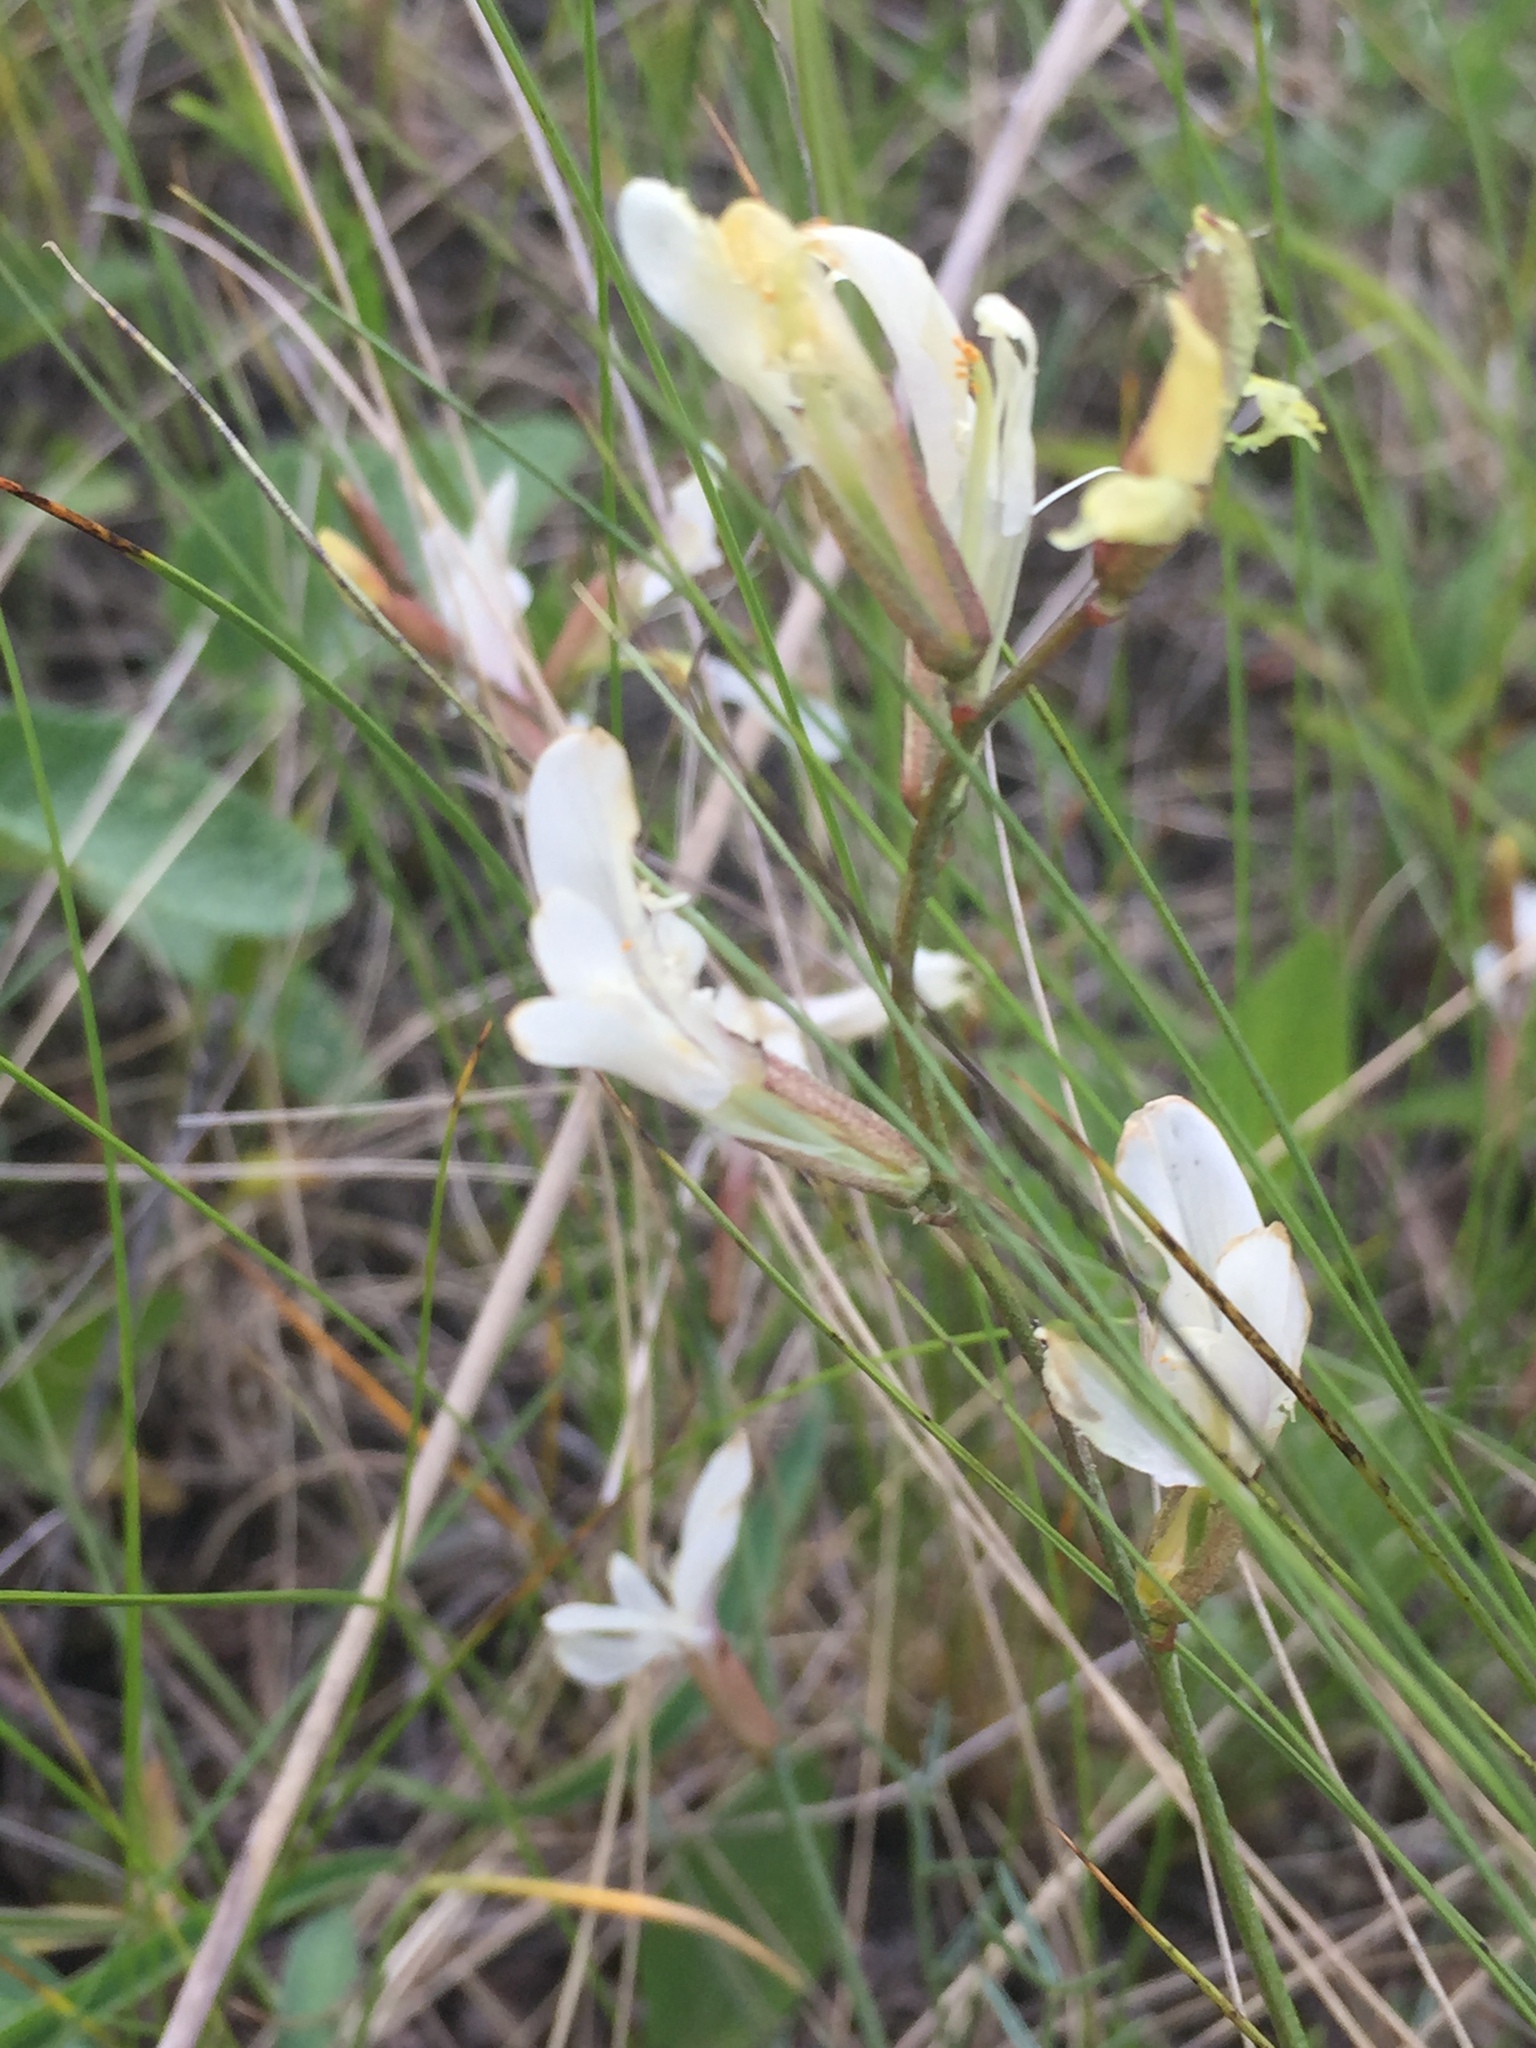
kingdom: Plantae
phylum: Tracheophyta
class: Magnoliopsida
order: Fabales
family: Fabaceae
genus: Astragalus
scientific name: Astragalus ucrainicus
